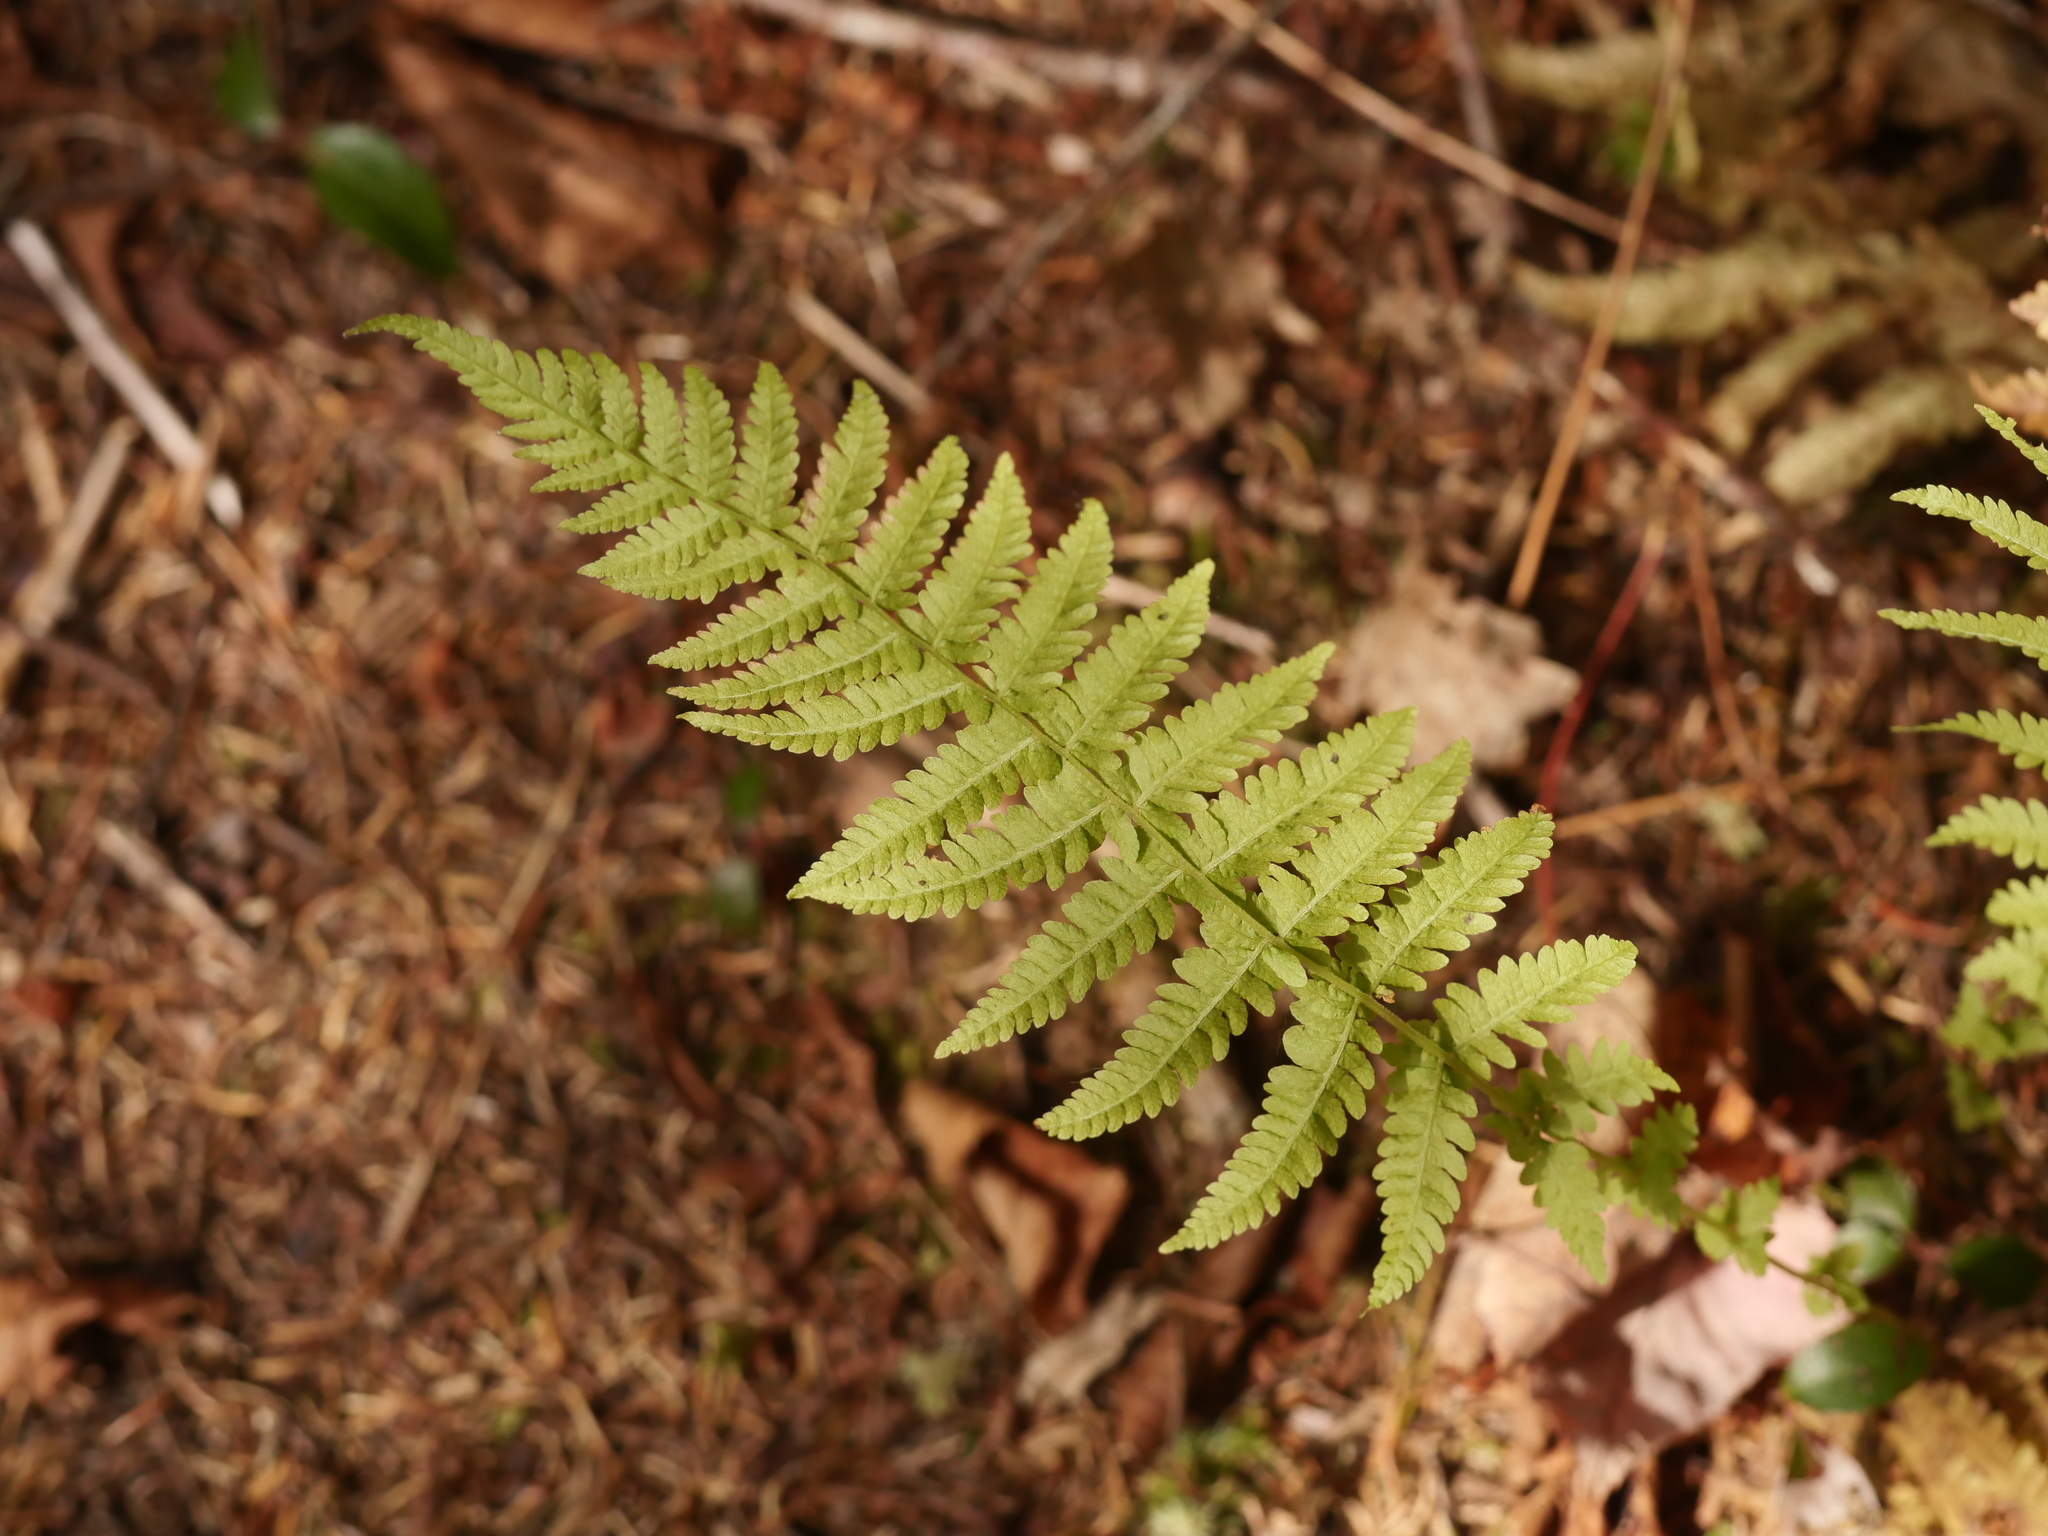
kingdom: Plantae
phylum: Tracheophyta
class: Polypodiopsida
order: Polypodiales
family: Thelypteridaceae
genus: Amauropelta
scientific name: Amauropelta noveboracensis
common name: New york fern
